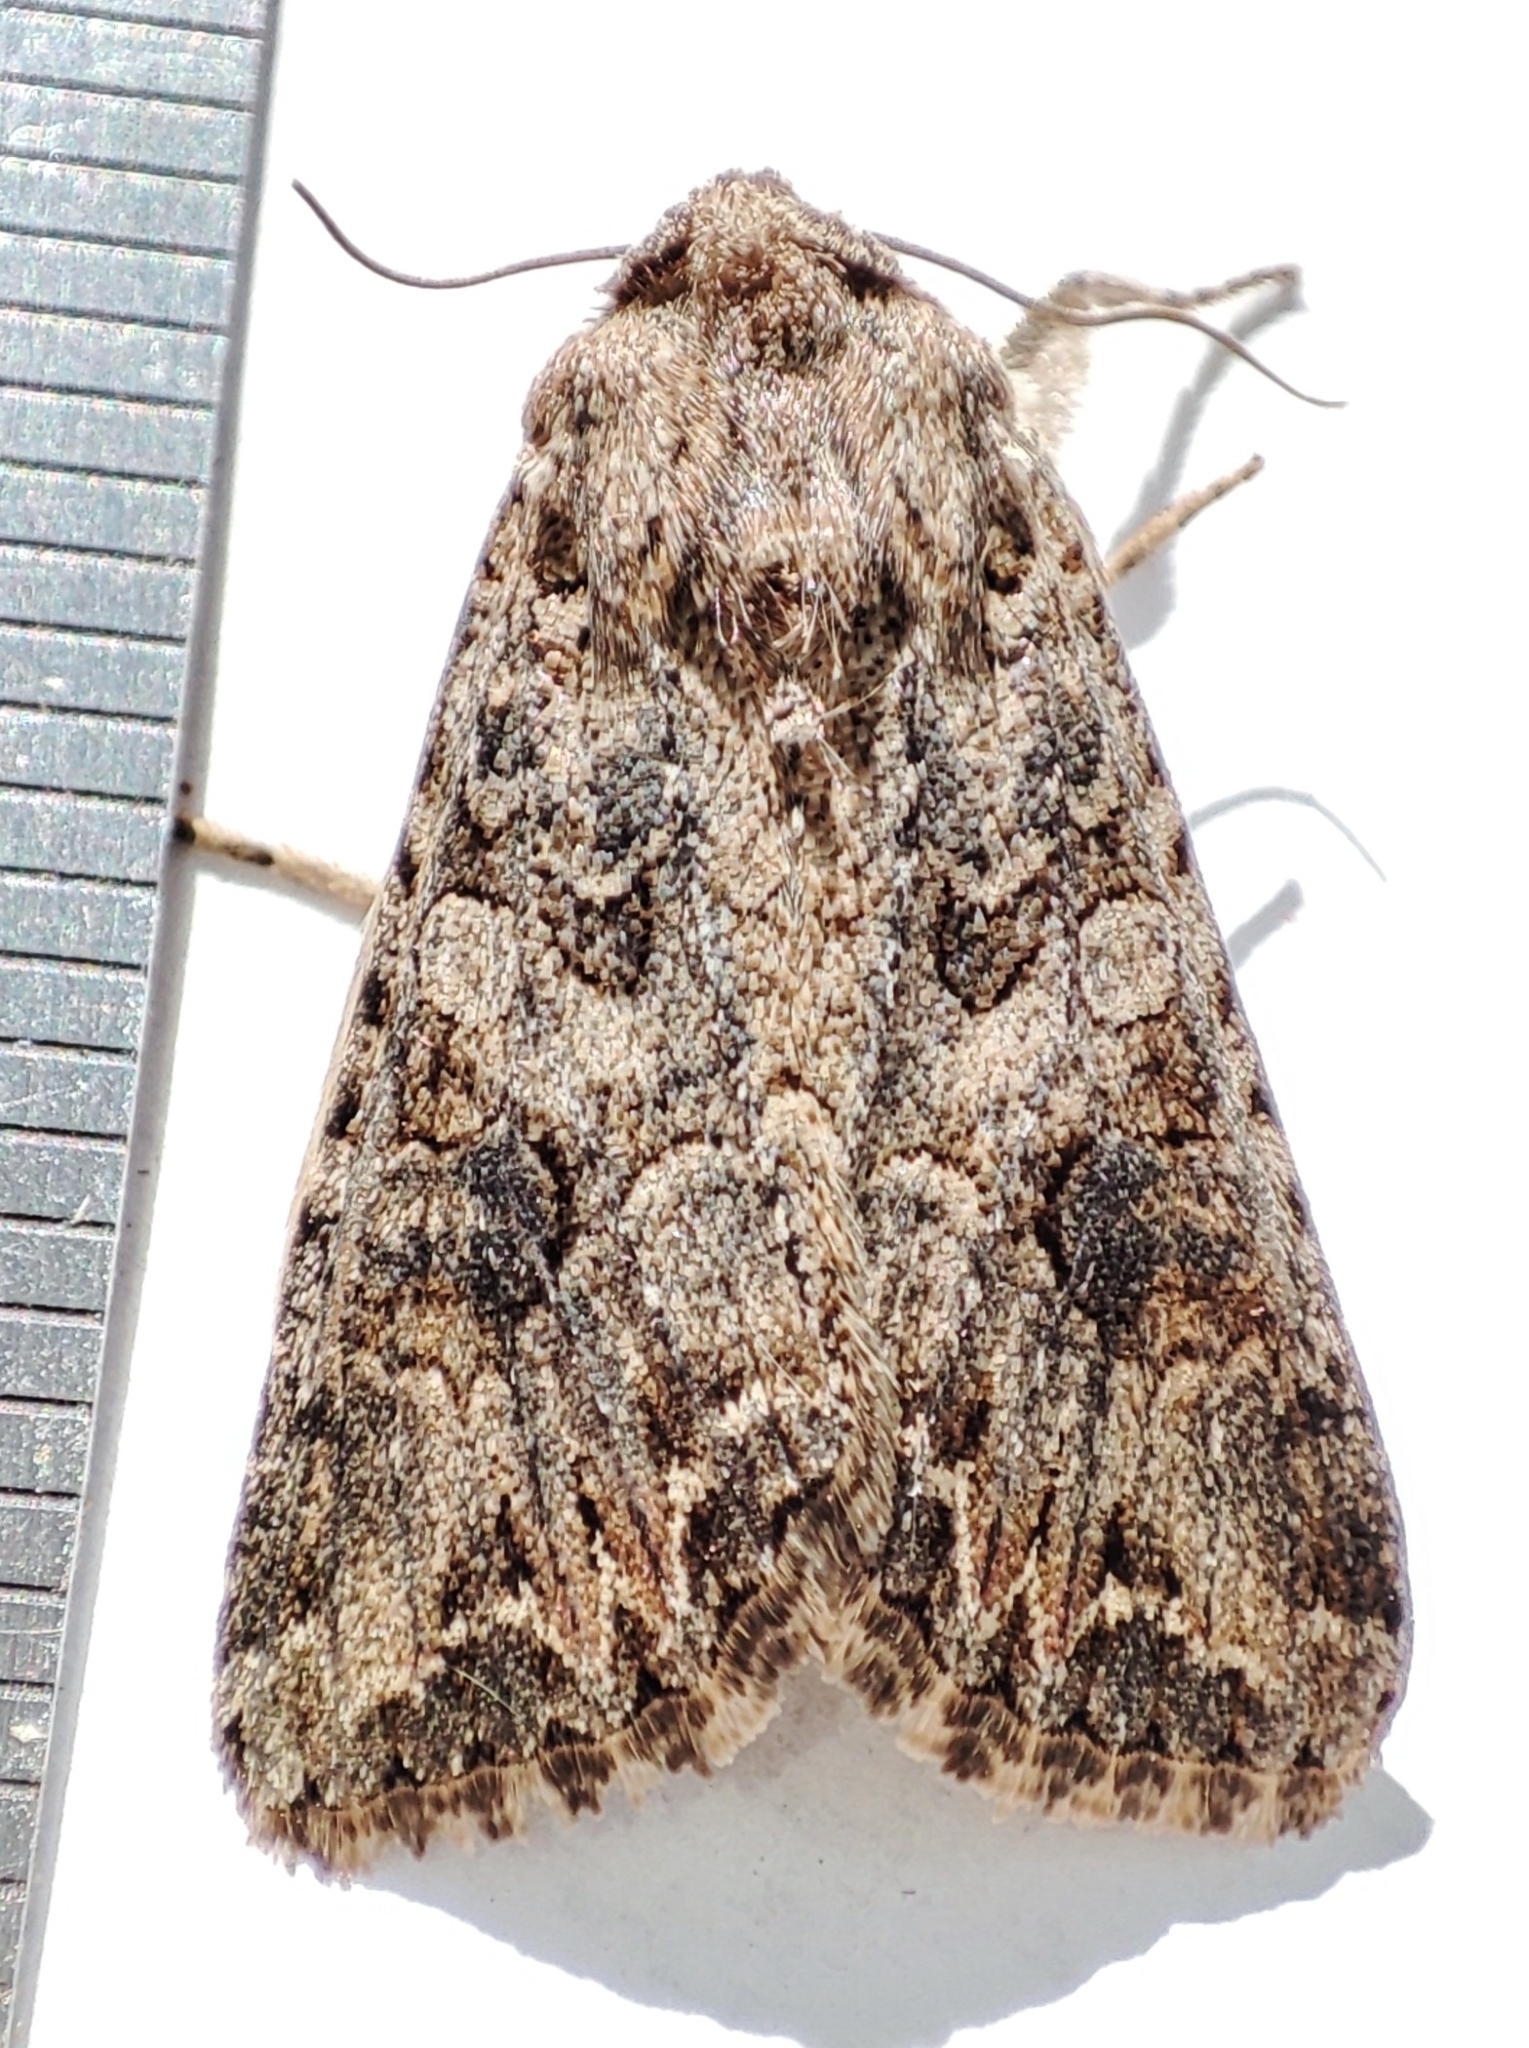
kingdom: Animalia
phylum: Arthropoda
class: Insecta
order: Lepidoptera
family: Noctuidae
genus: Anarta
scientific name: Anarta trifolii
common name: Clover cutworm moth
